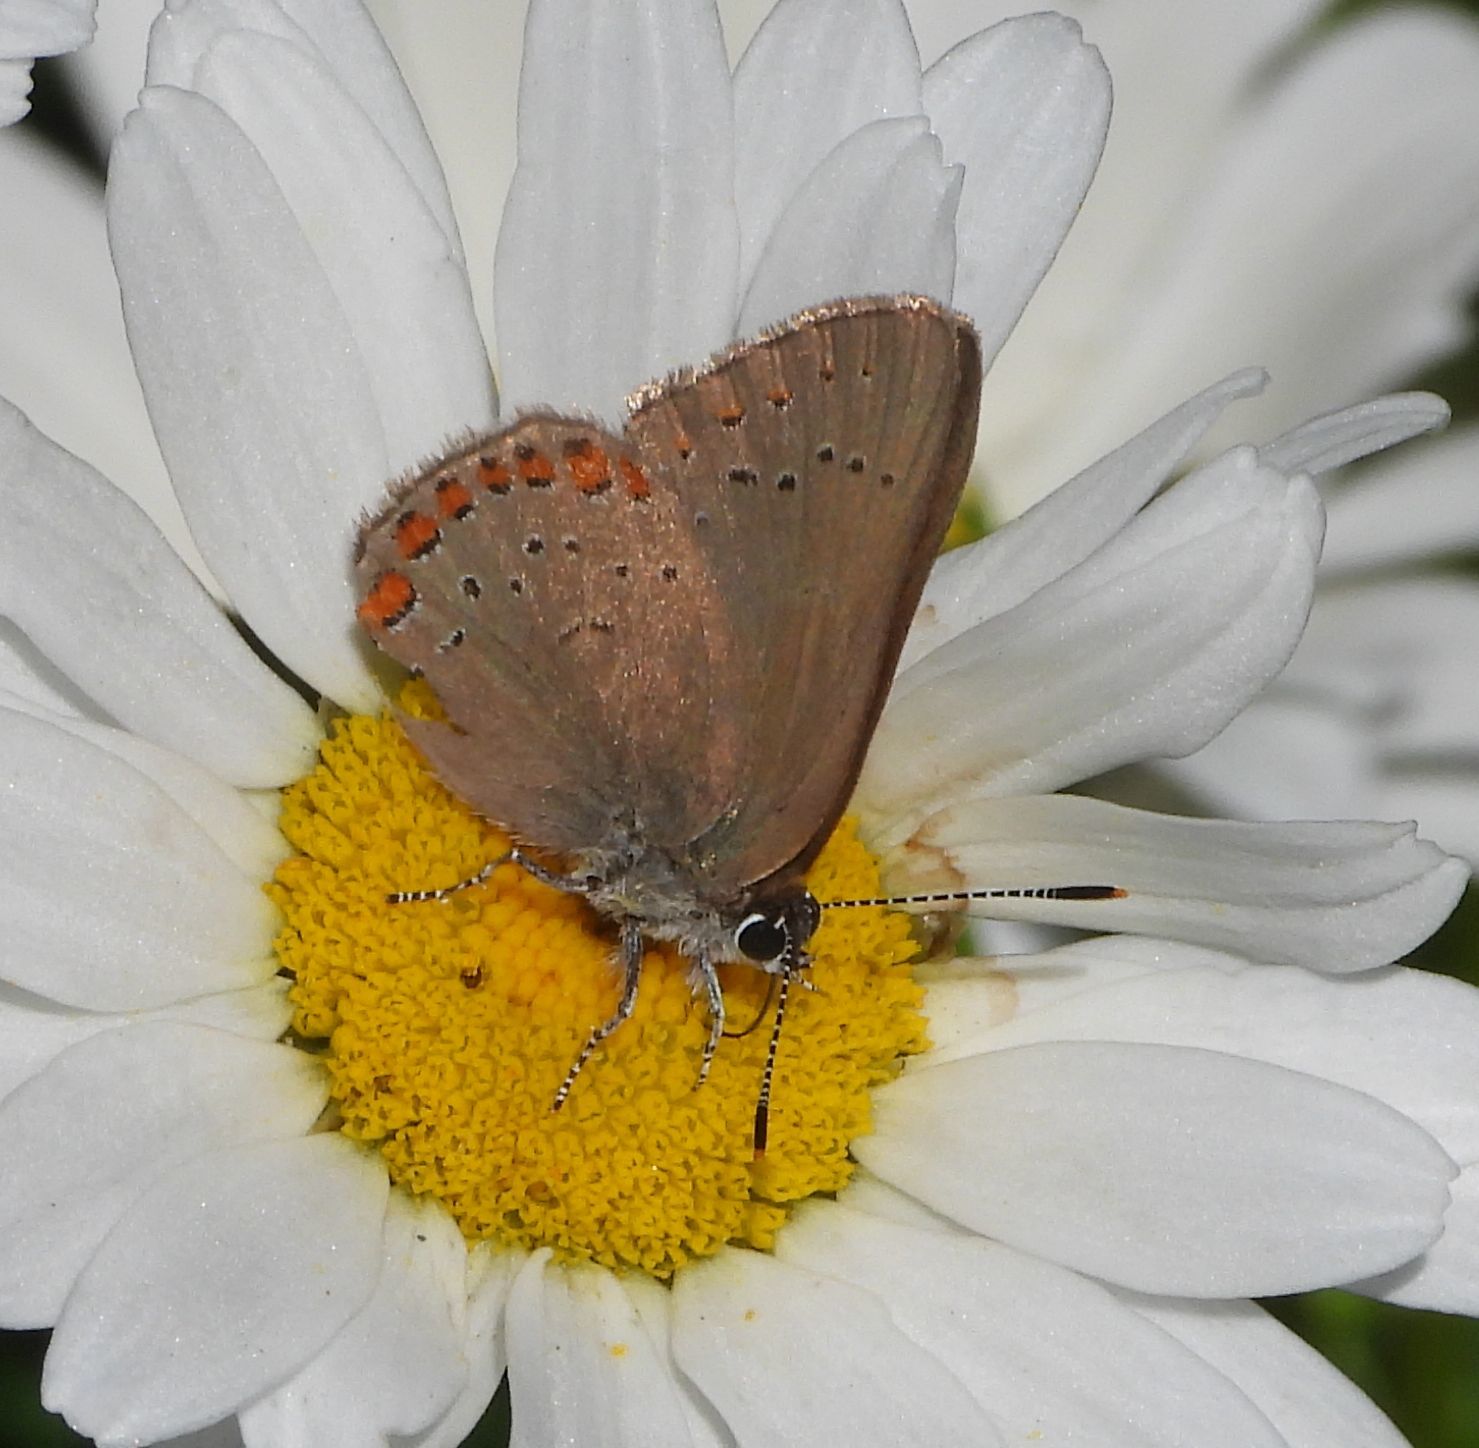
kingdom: Animalia
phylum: Arthropoda
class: Insecta
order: Lepidoptera
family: Lycaenidae
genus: Harkenclenus
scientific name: Harkenclenus titus
